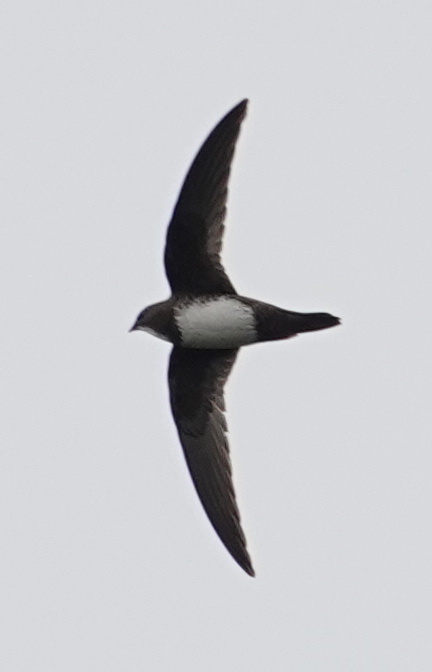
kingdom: Animalia
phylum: Chordata
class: Aves
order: Apodiformes
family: Apodidae
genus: Tachymarptis
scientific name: Tachymarptis melba
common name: Alpine swift
